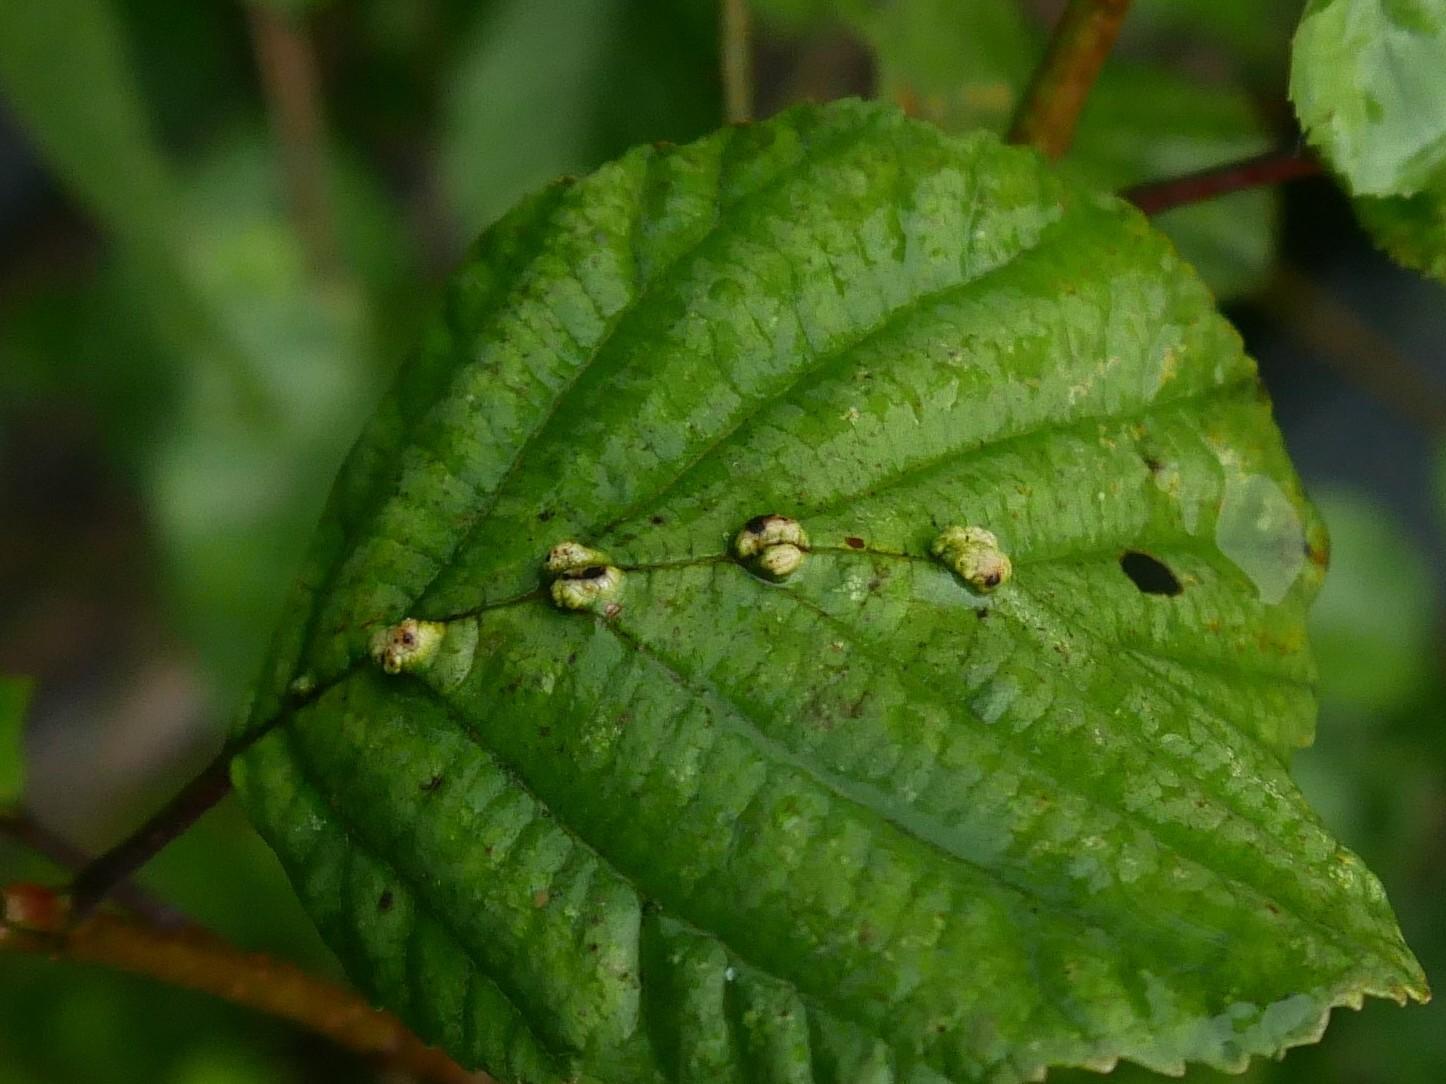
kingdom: Animalia
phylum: Arthropoda
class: Arachnida
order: Trombidiformes
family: Eriophyidae
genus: Eriophyes
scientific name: Eriophyes inangulis
